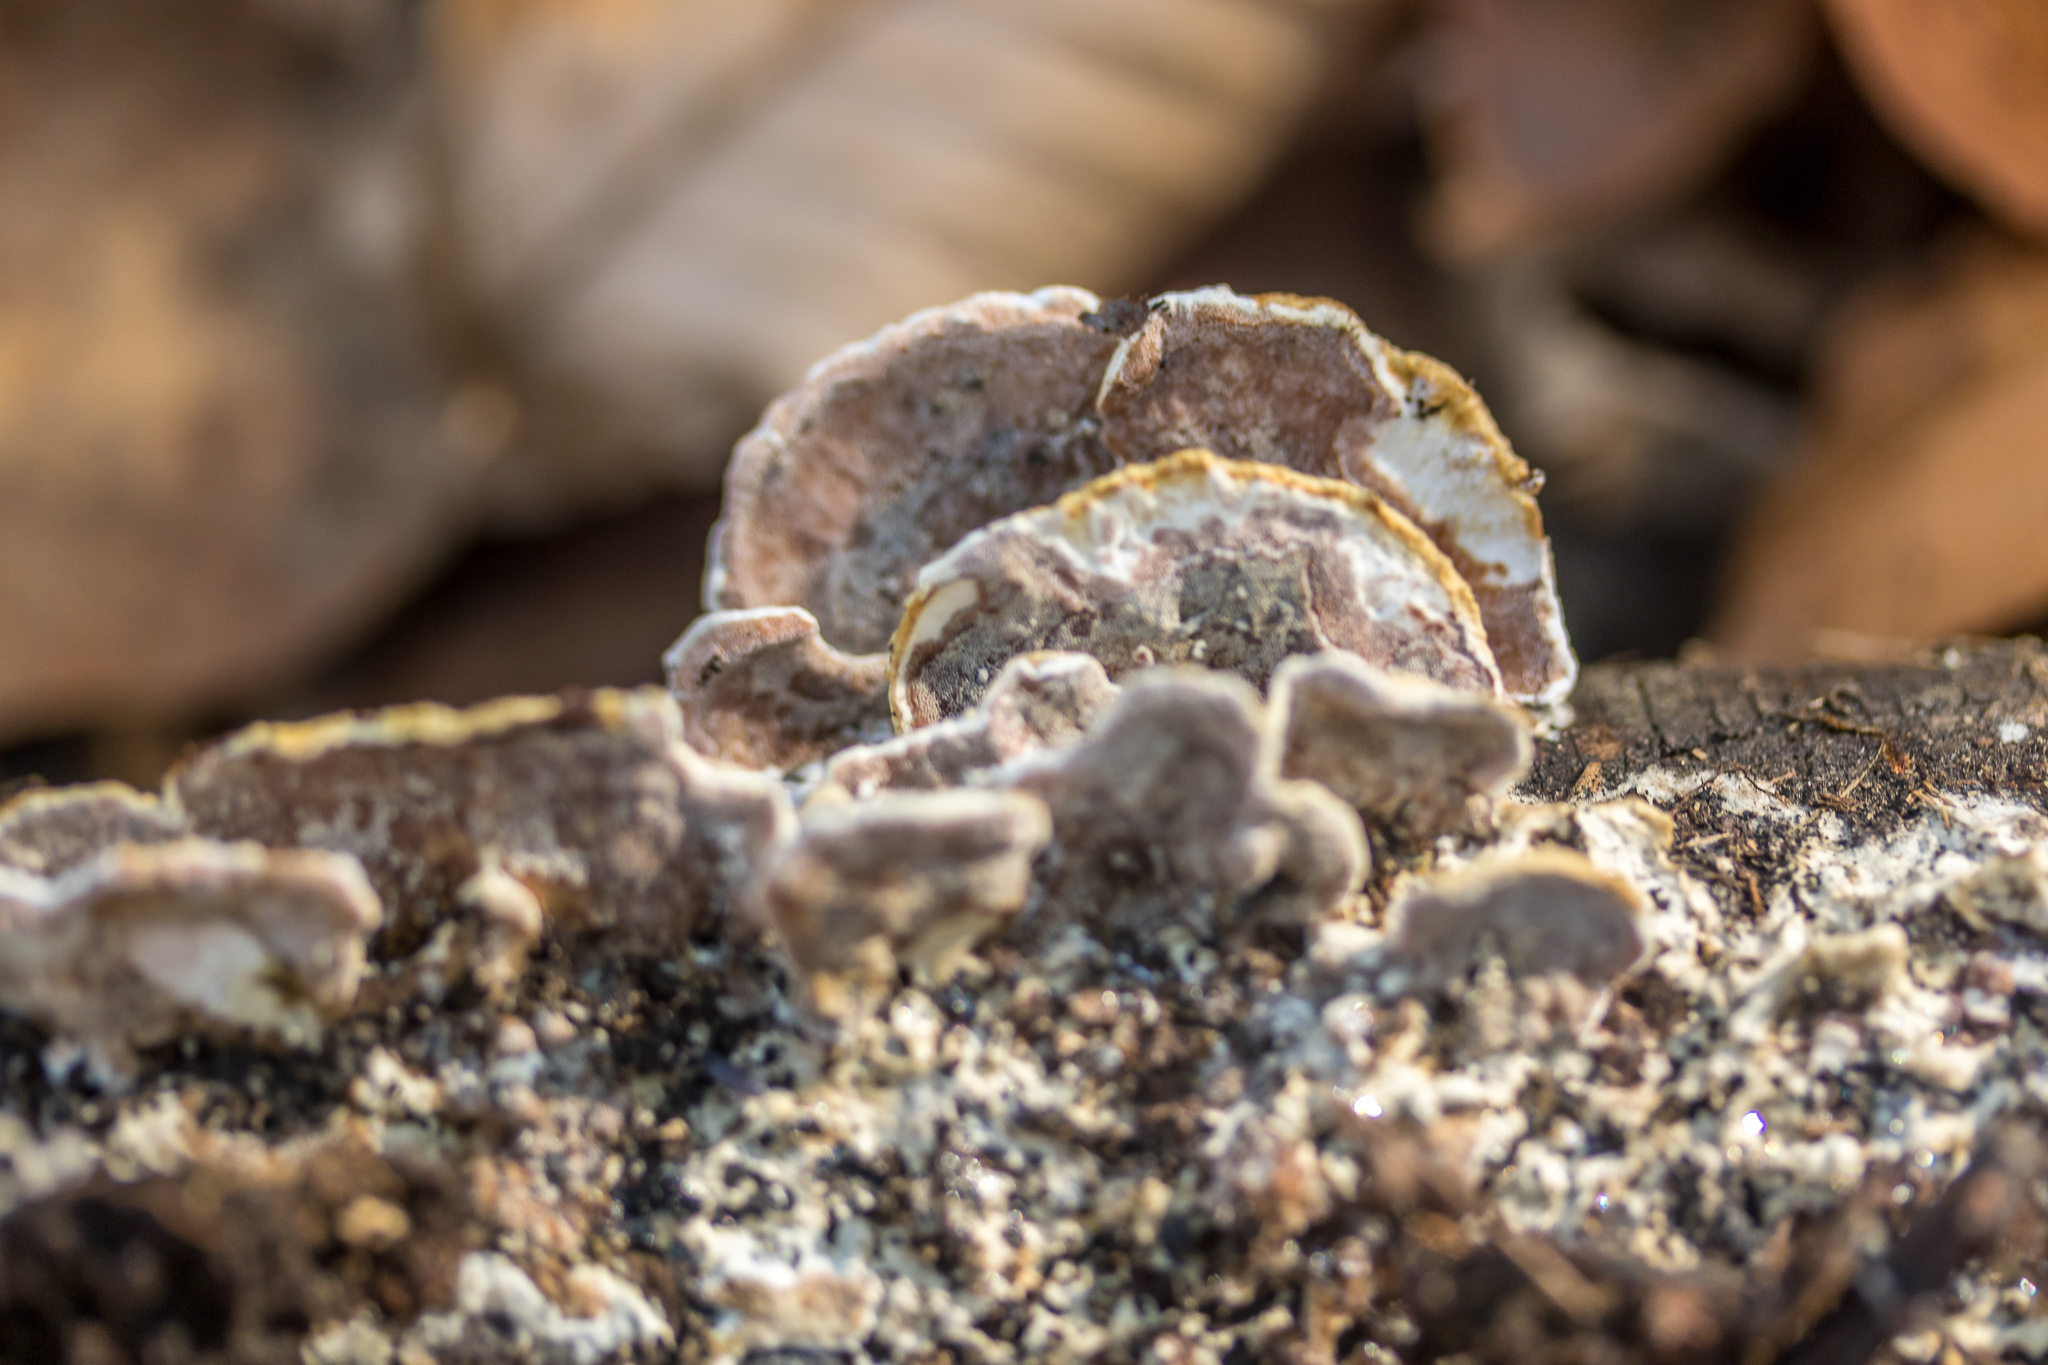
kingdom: Fungi
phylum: Basidiomycota
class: Agaricomycetes
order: Polyporales
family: Irpicaceae
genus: Vitreoporus
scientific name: Vitreoporus dichrous
